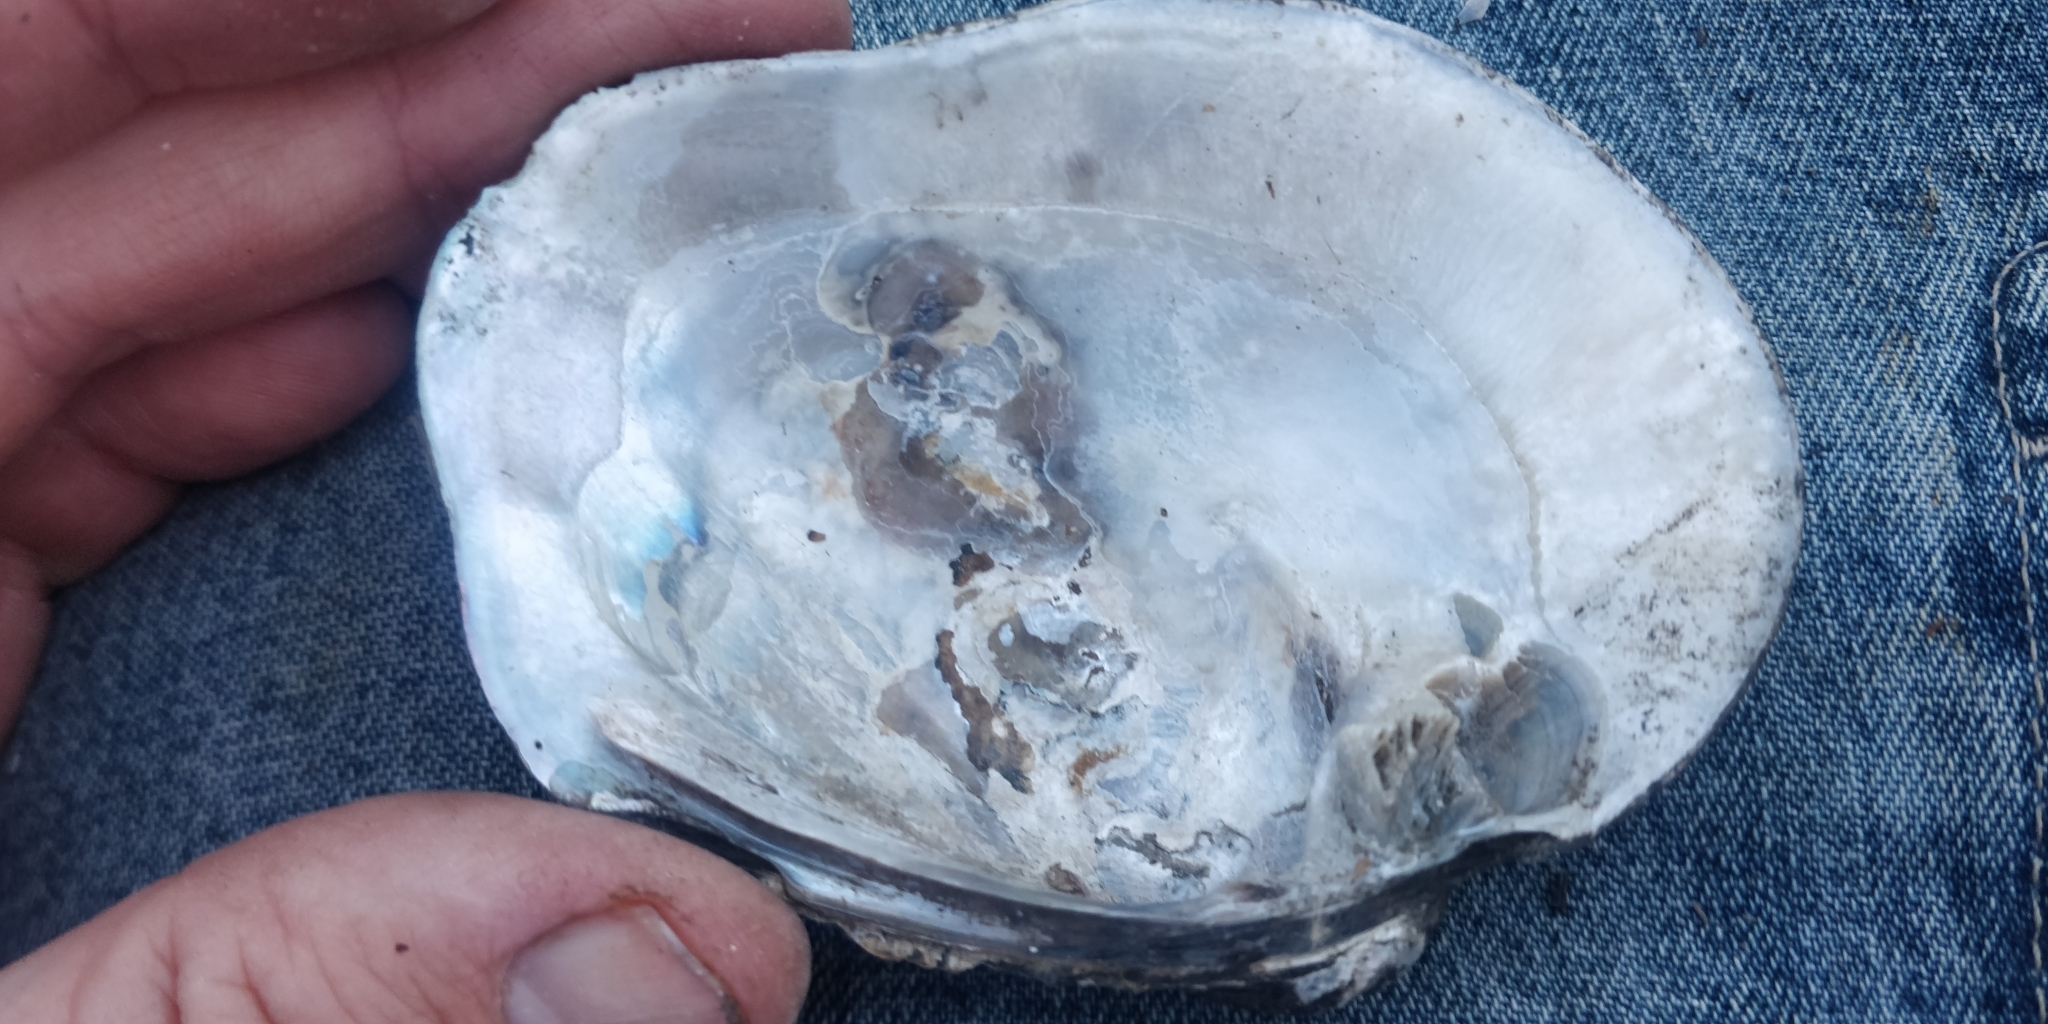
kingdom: Animalia
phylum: Mollusca
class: Bivalvia
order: Unionida
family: Unionidae
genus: Quadrula
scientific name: Quadrula quadrula
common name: Mapleleaf
